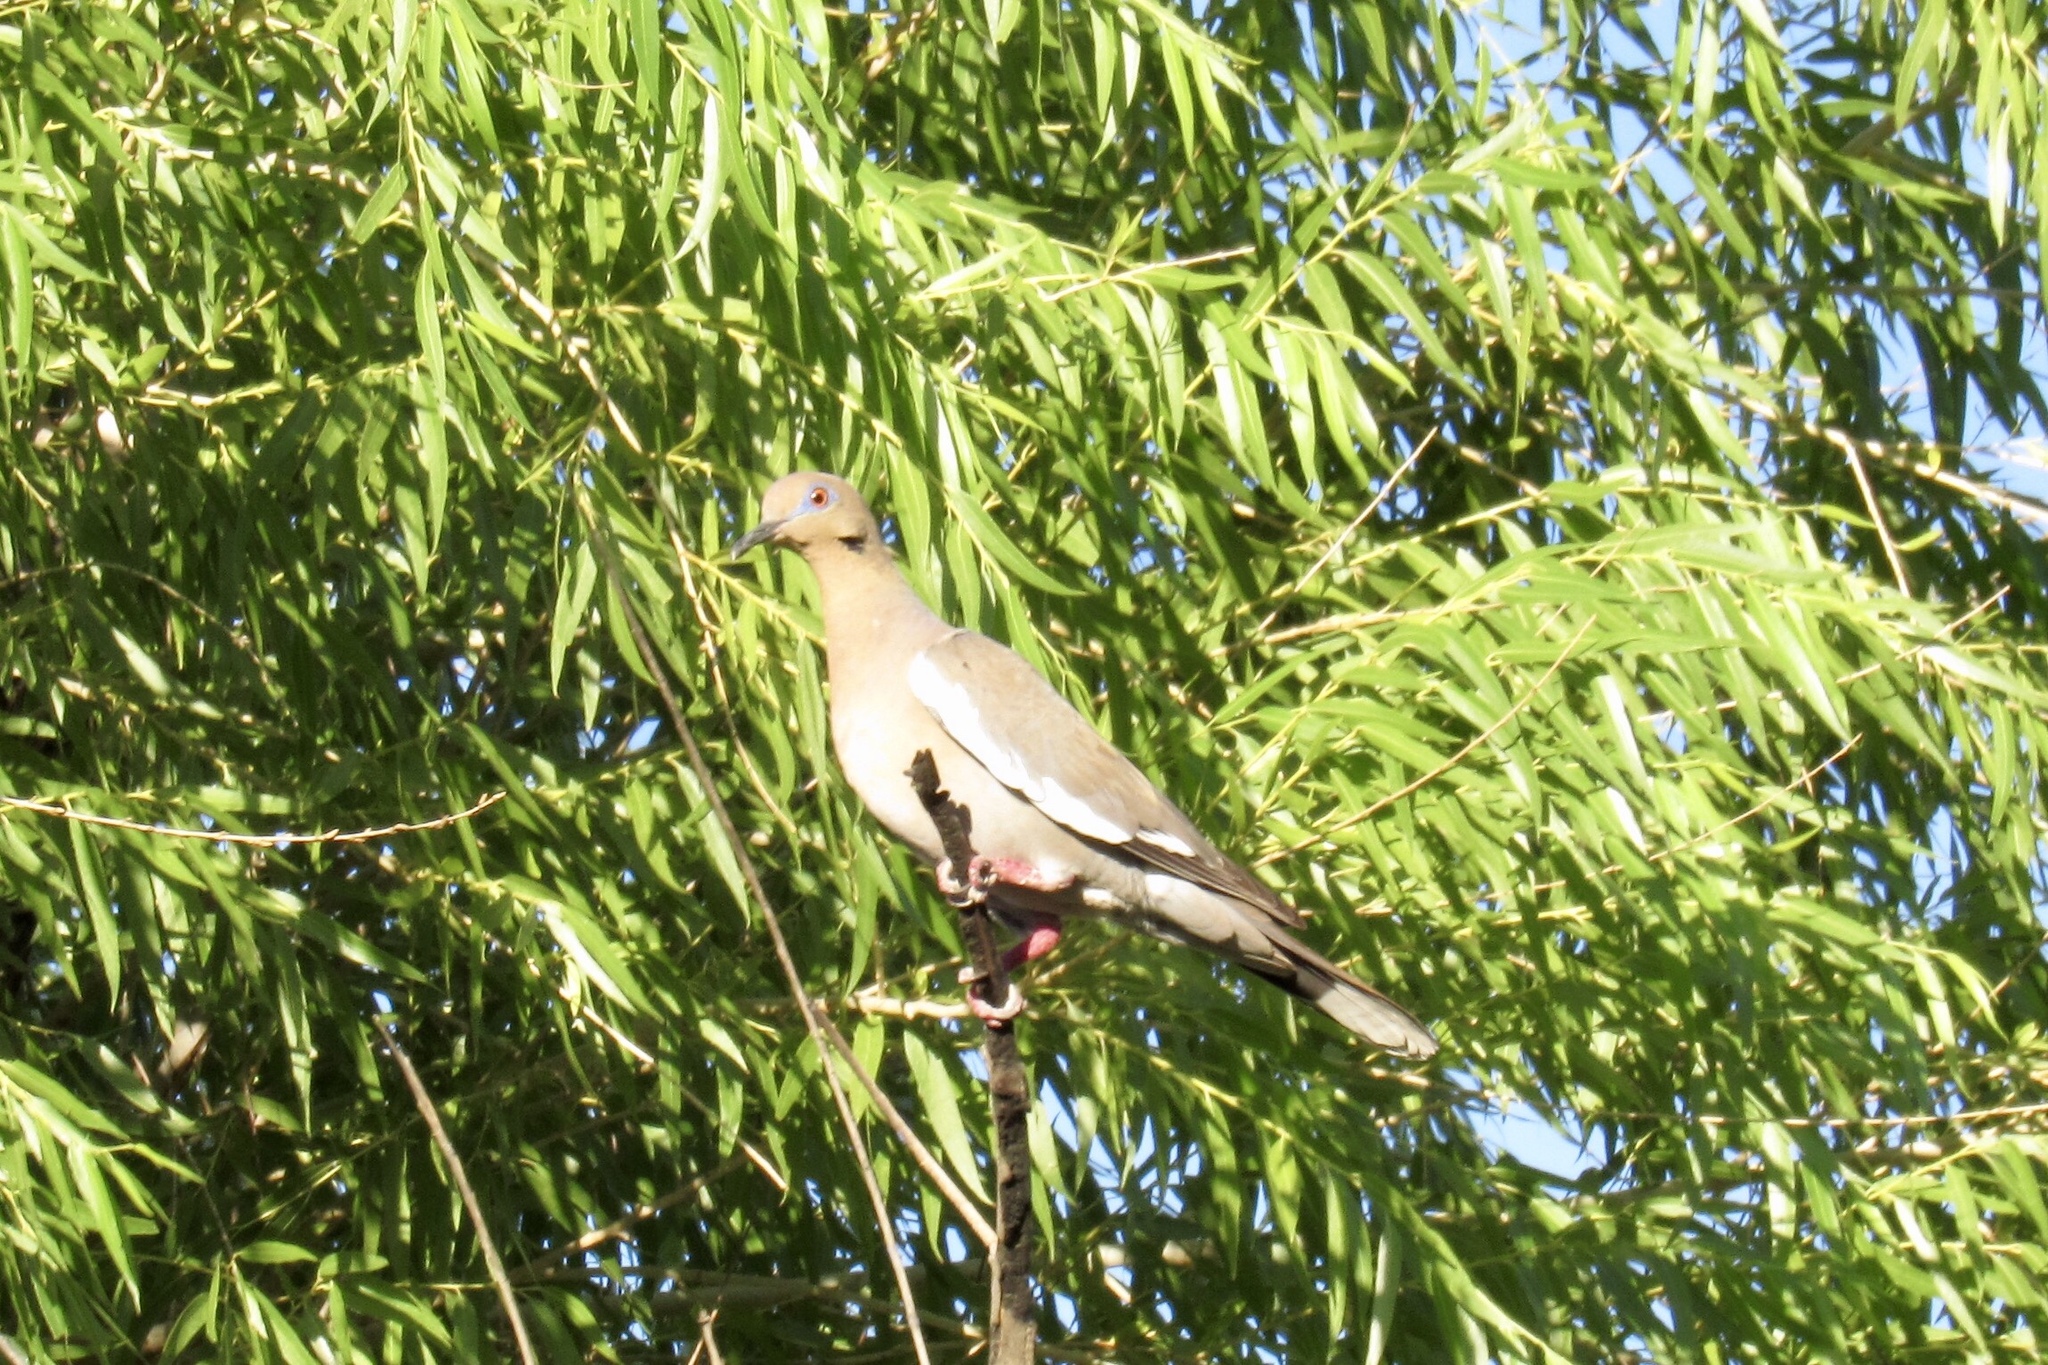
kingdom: Animalia
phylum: Chordata
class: Aves
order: Columbiformes
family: Columbidae
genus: Zenaida
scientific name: Zenaida asiatica
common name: White-winged dove
